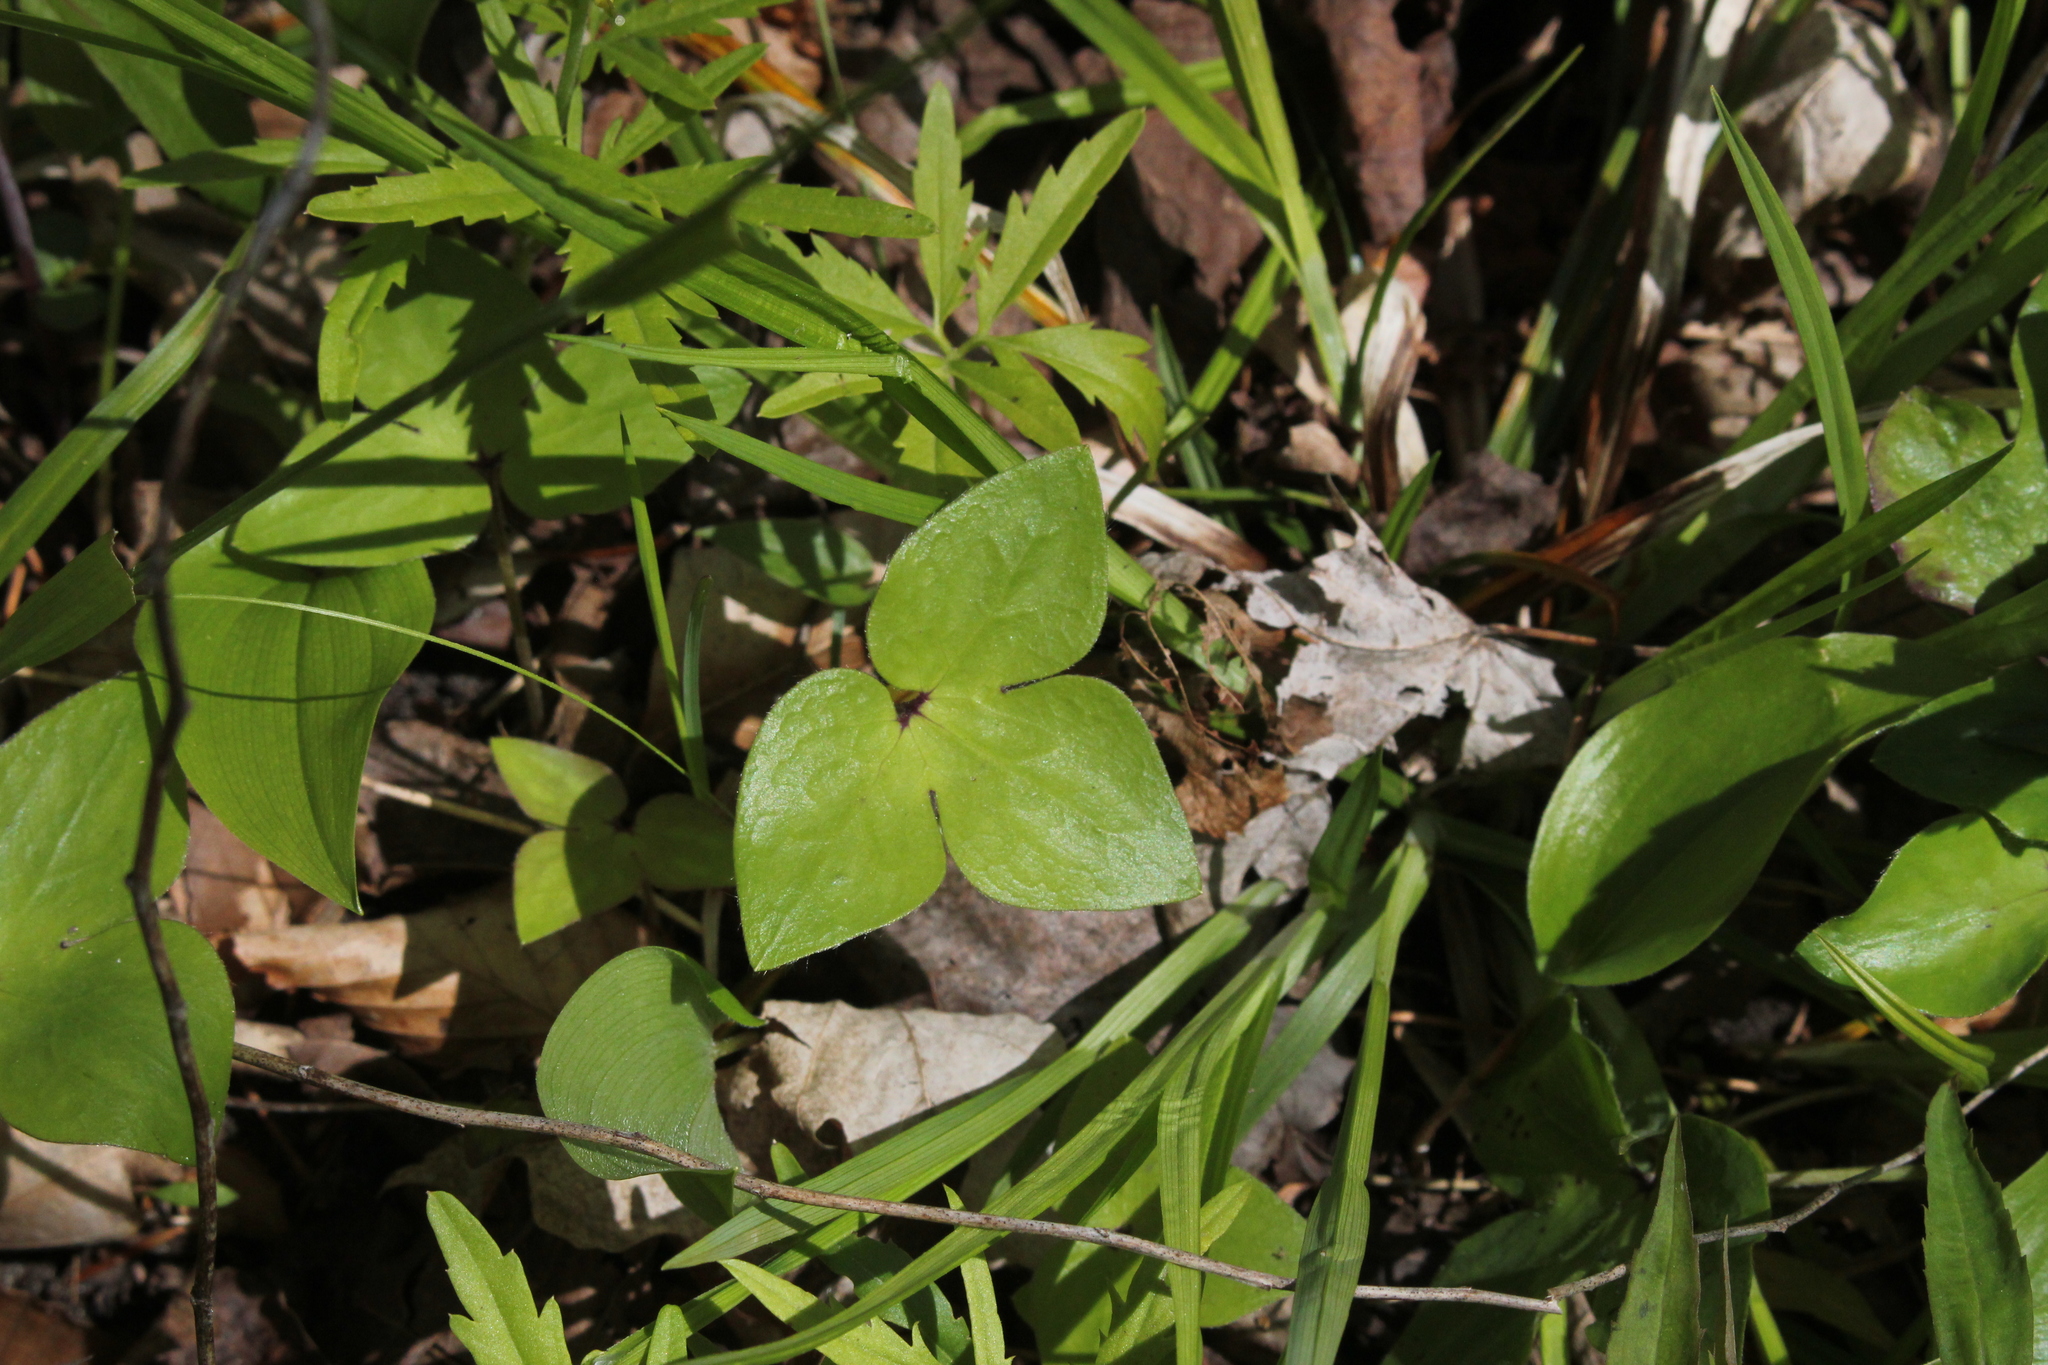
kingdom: Plantae
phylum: Tracheophyta
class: Magnoliopsida
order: Ranunculales
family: Ranunculaceae
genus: Hepatica
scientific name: Hepatica acutiloba
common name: Sharp-lobed hepatica
